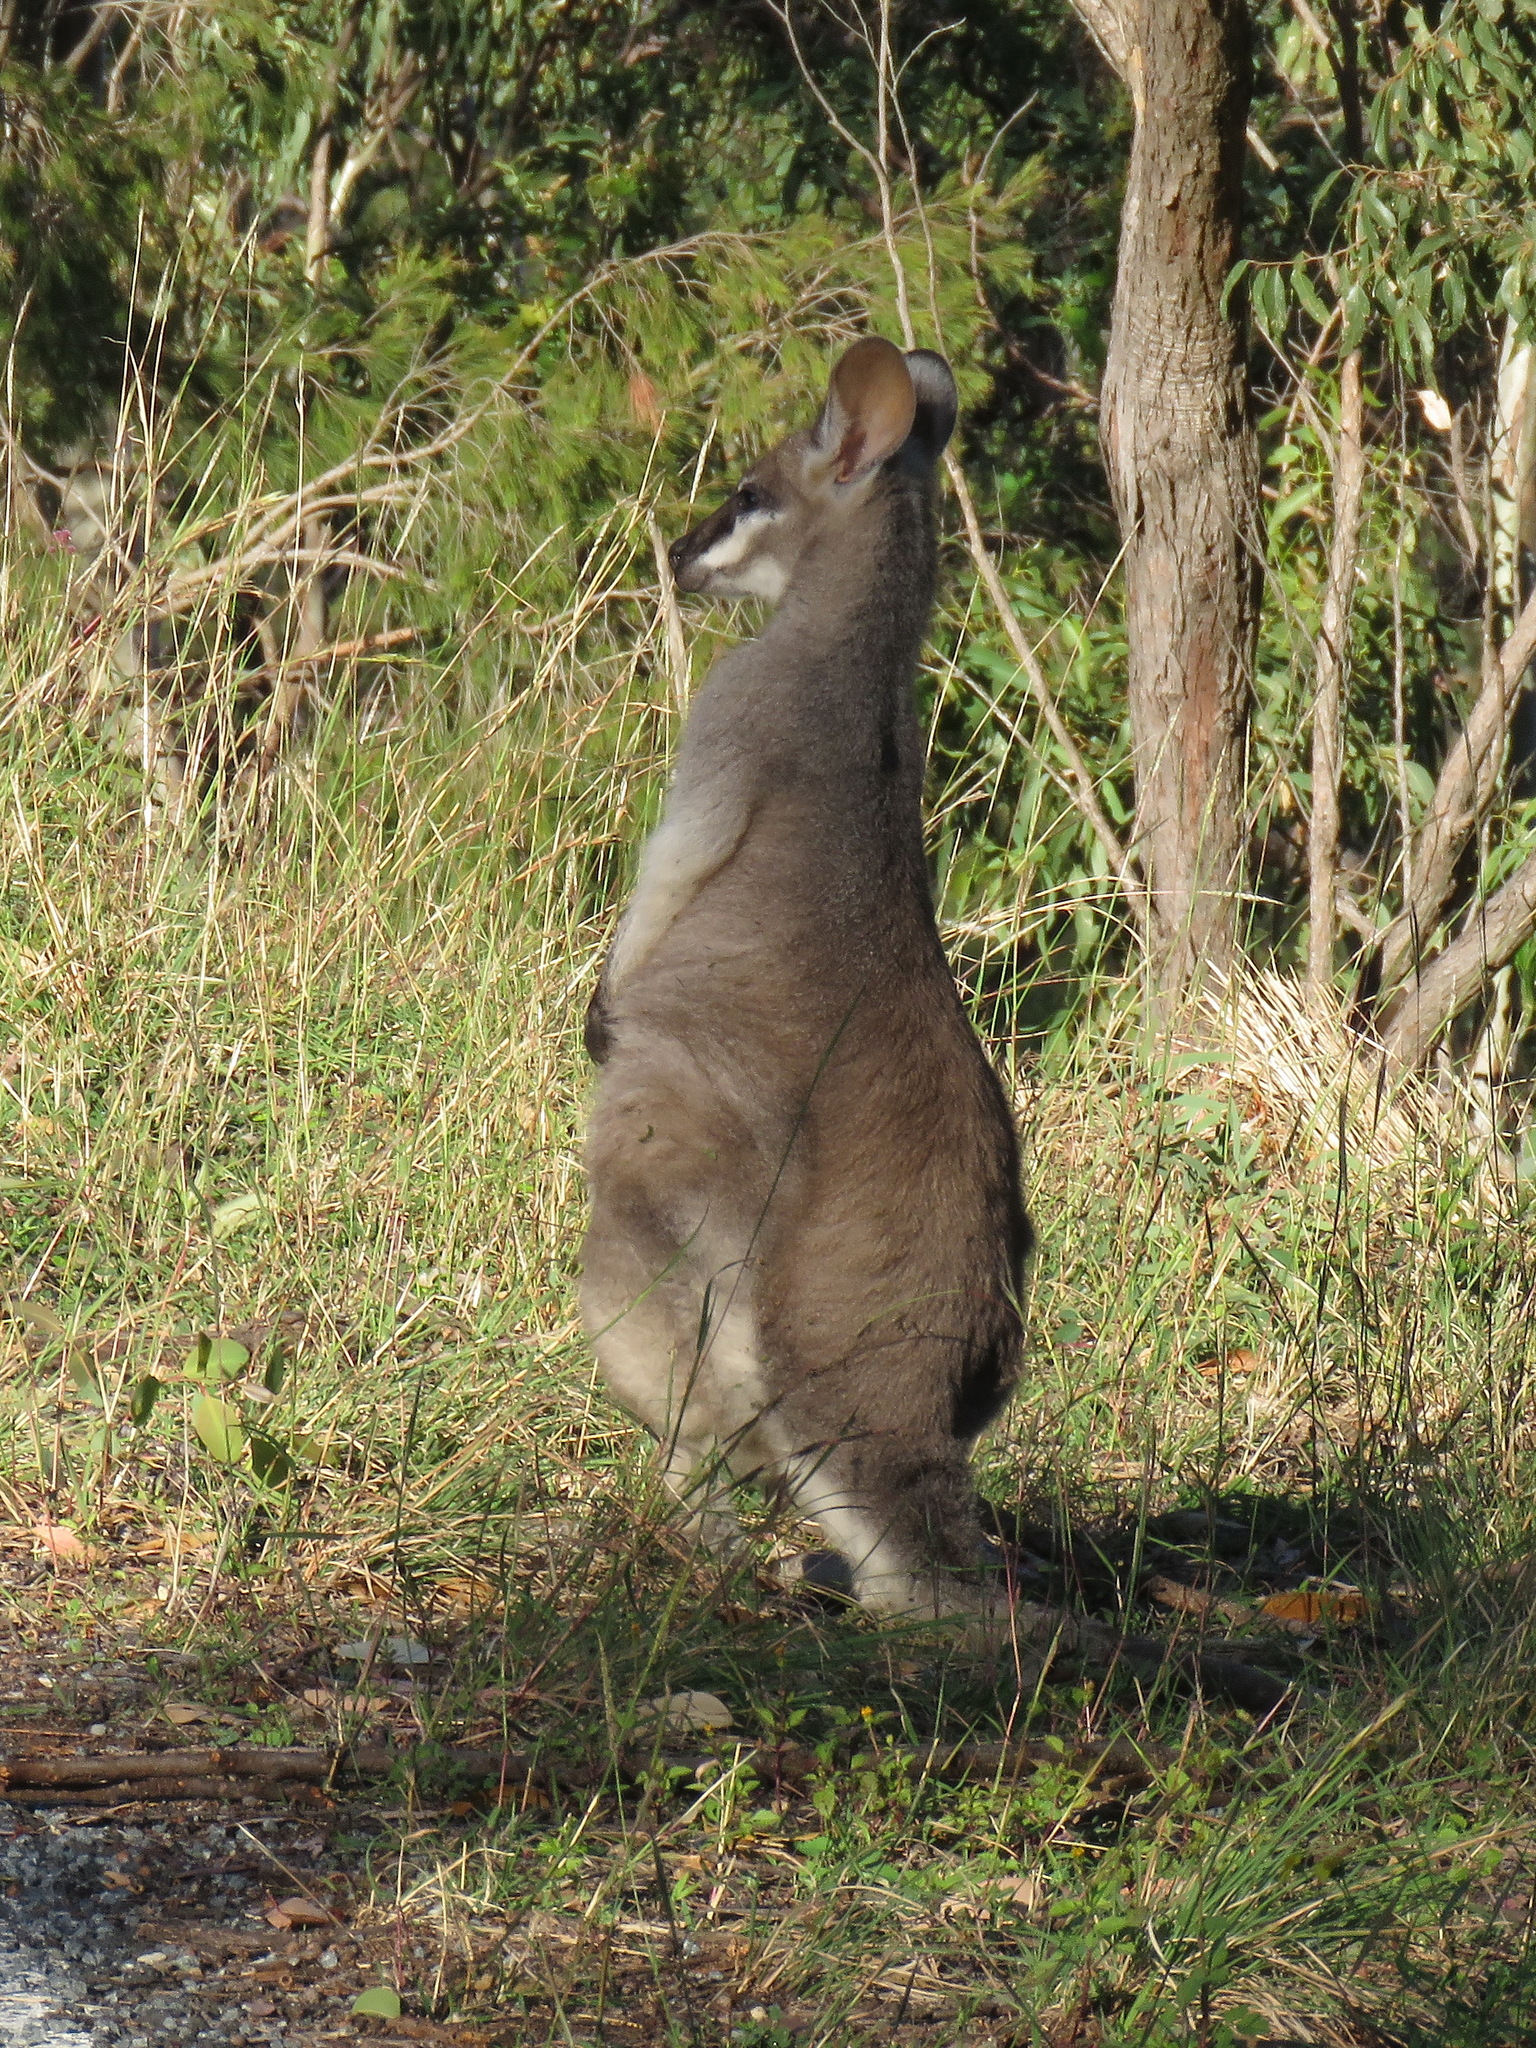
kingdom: Animalia
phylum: Chordata
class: Mammalia
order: Diprotodontia
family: Macropodidae
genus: Notamacropus
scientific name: Notamacropus parryi
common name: Whip-tailed wallaby
